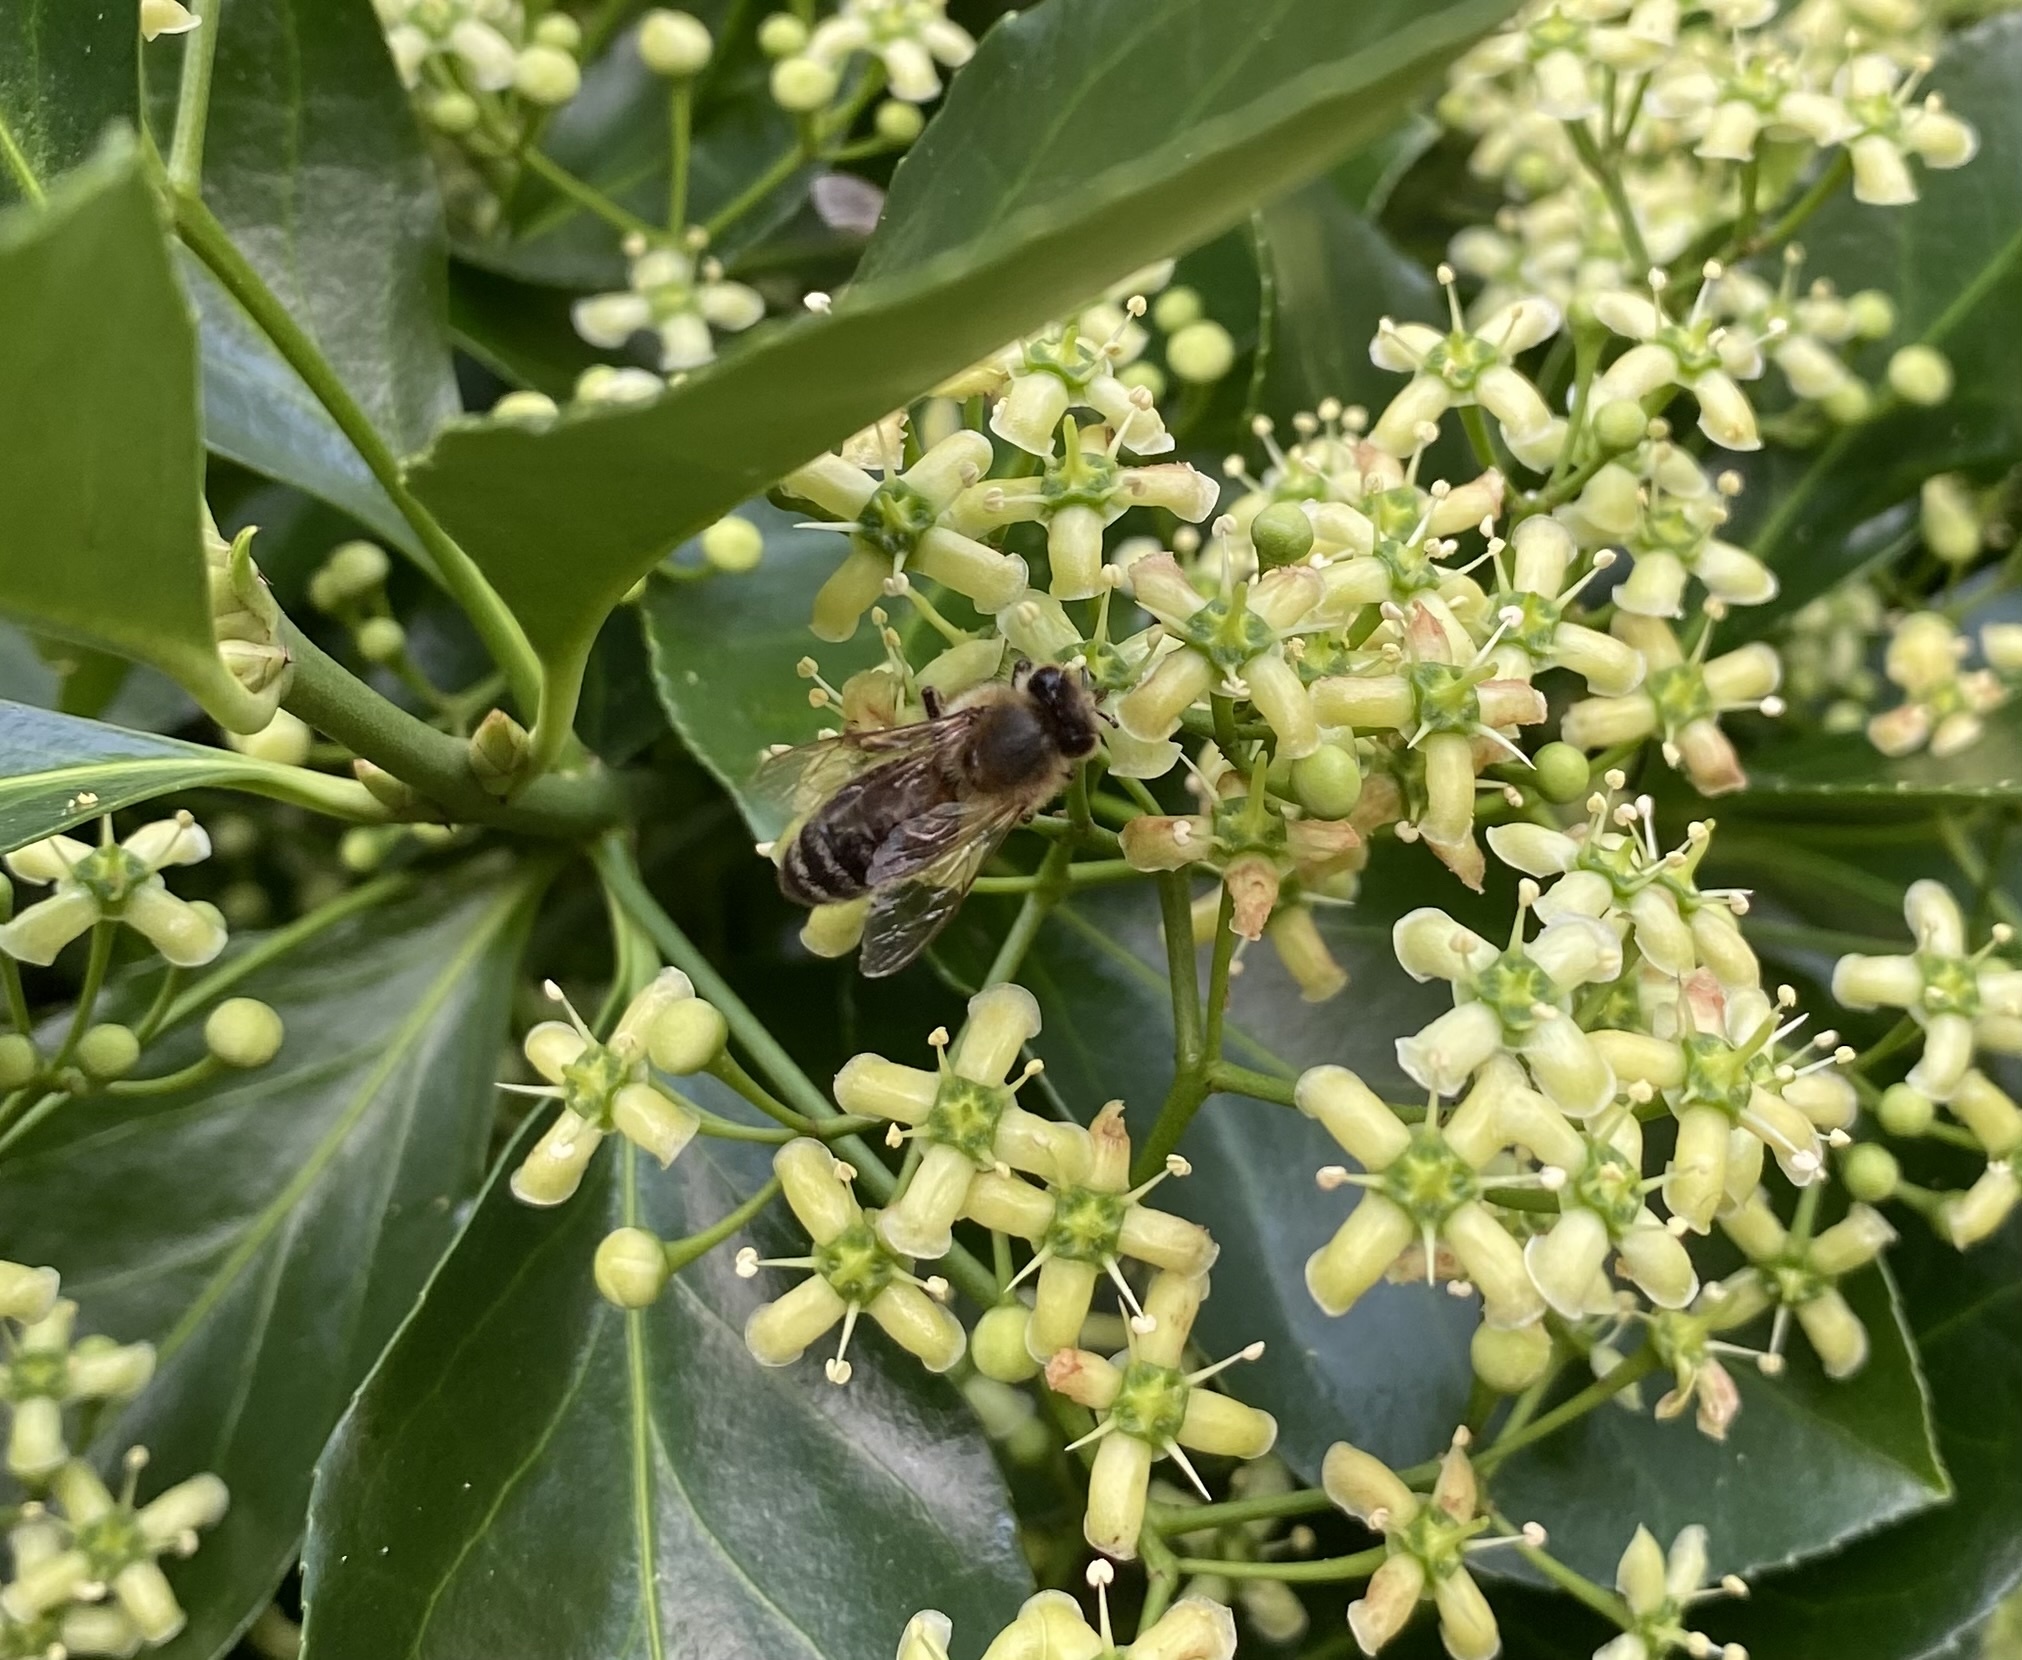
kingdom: Animalia
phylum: Arthropoda
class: Insecta
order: Hymenoptera
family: Apidae
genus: Apis
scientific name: Apis mellifera
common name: Honey bee
